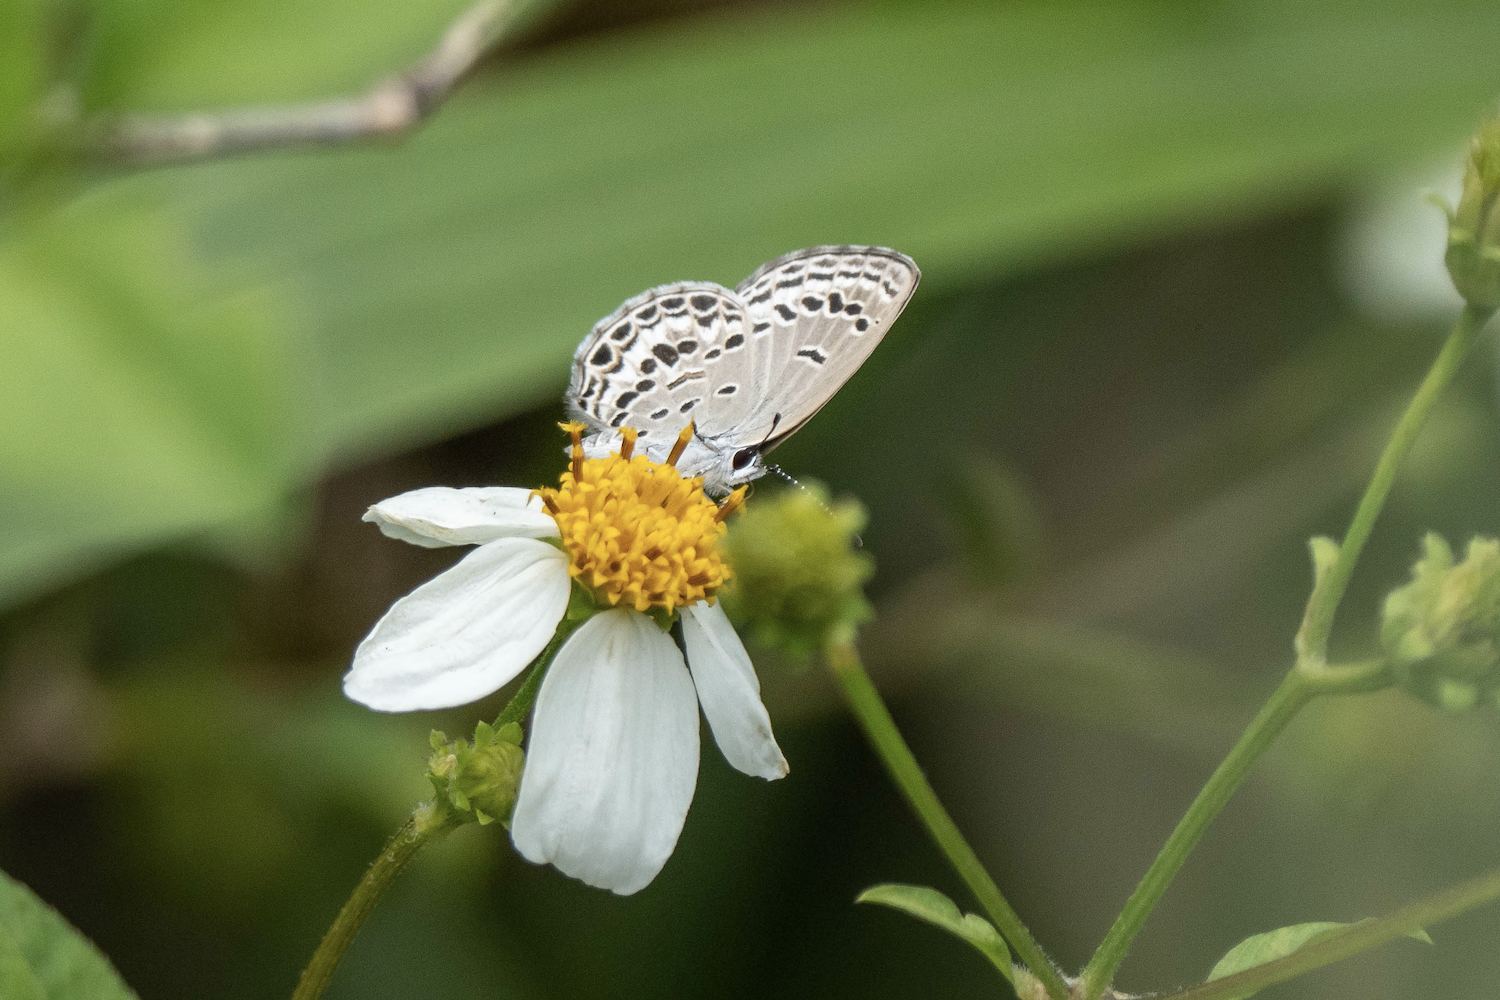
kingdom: Animalia
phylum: Arthropoda
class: Insecta
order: Lepidoptera
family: Lycaenidae
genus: Chilades
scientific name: Chilades laius
